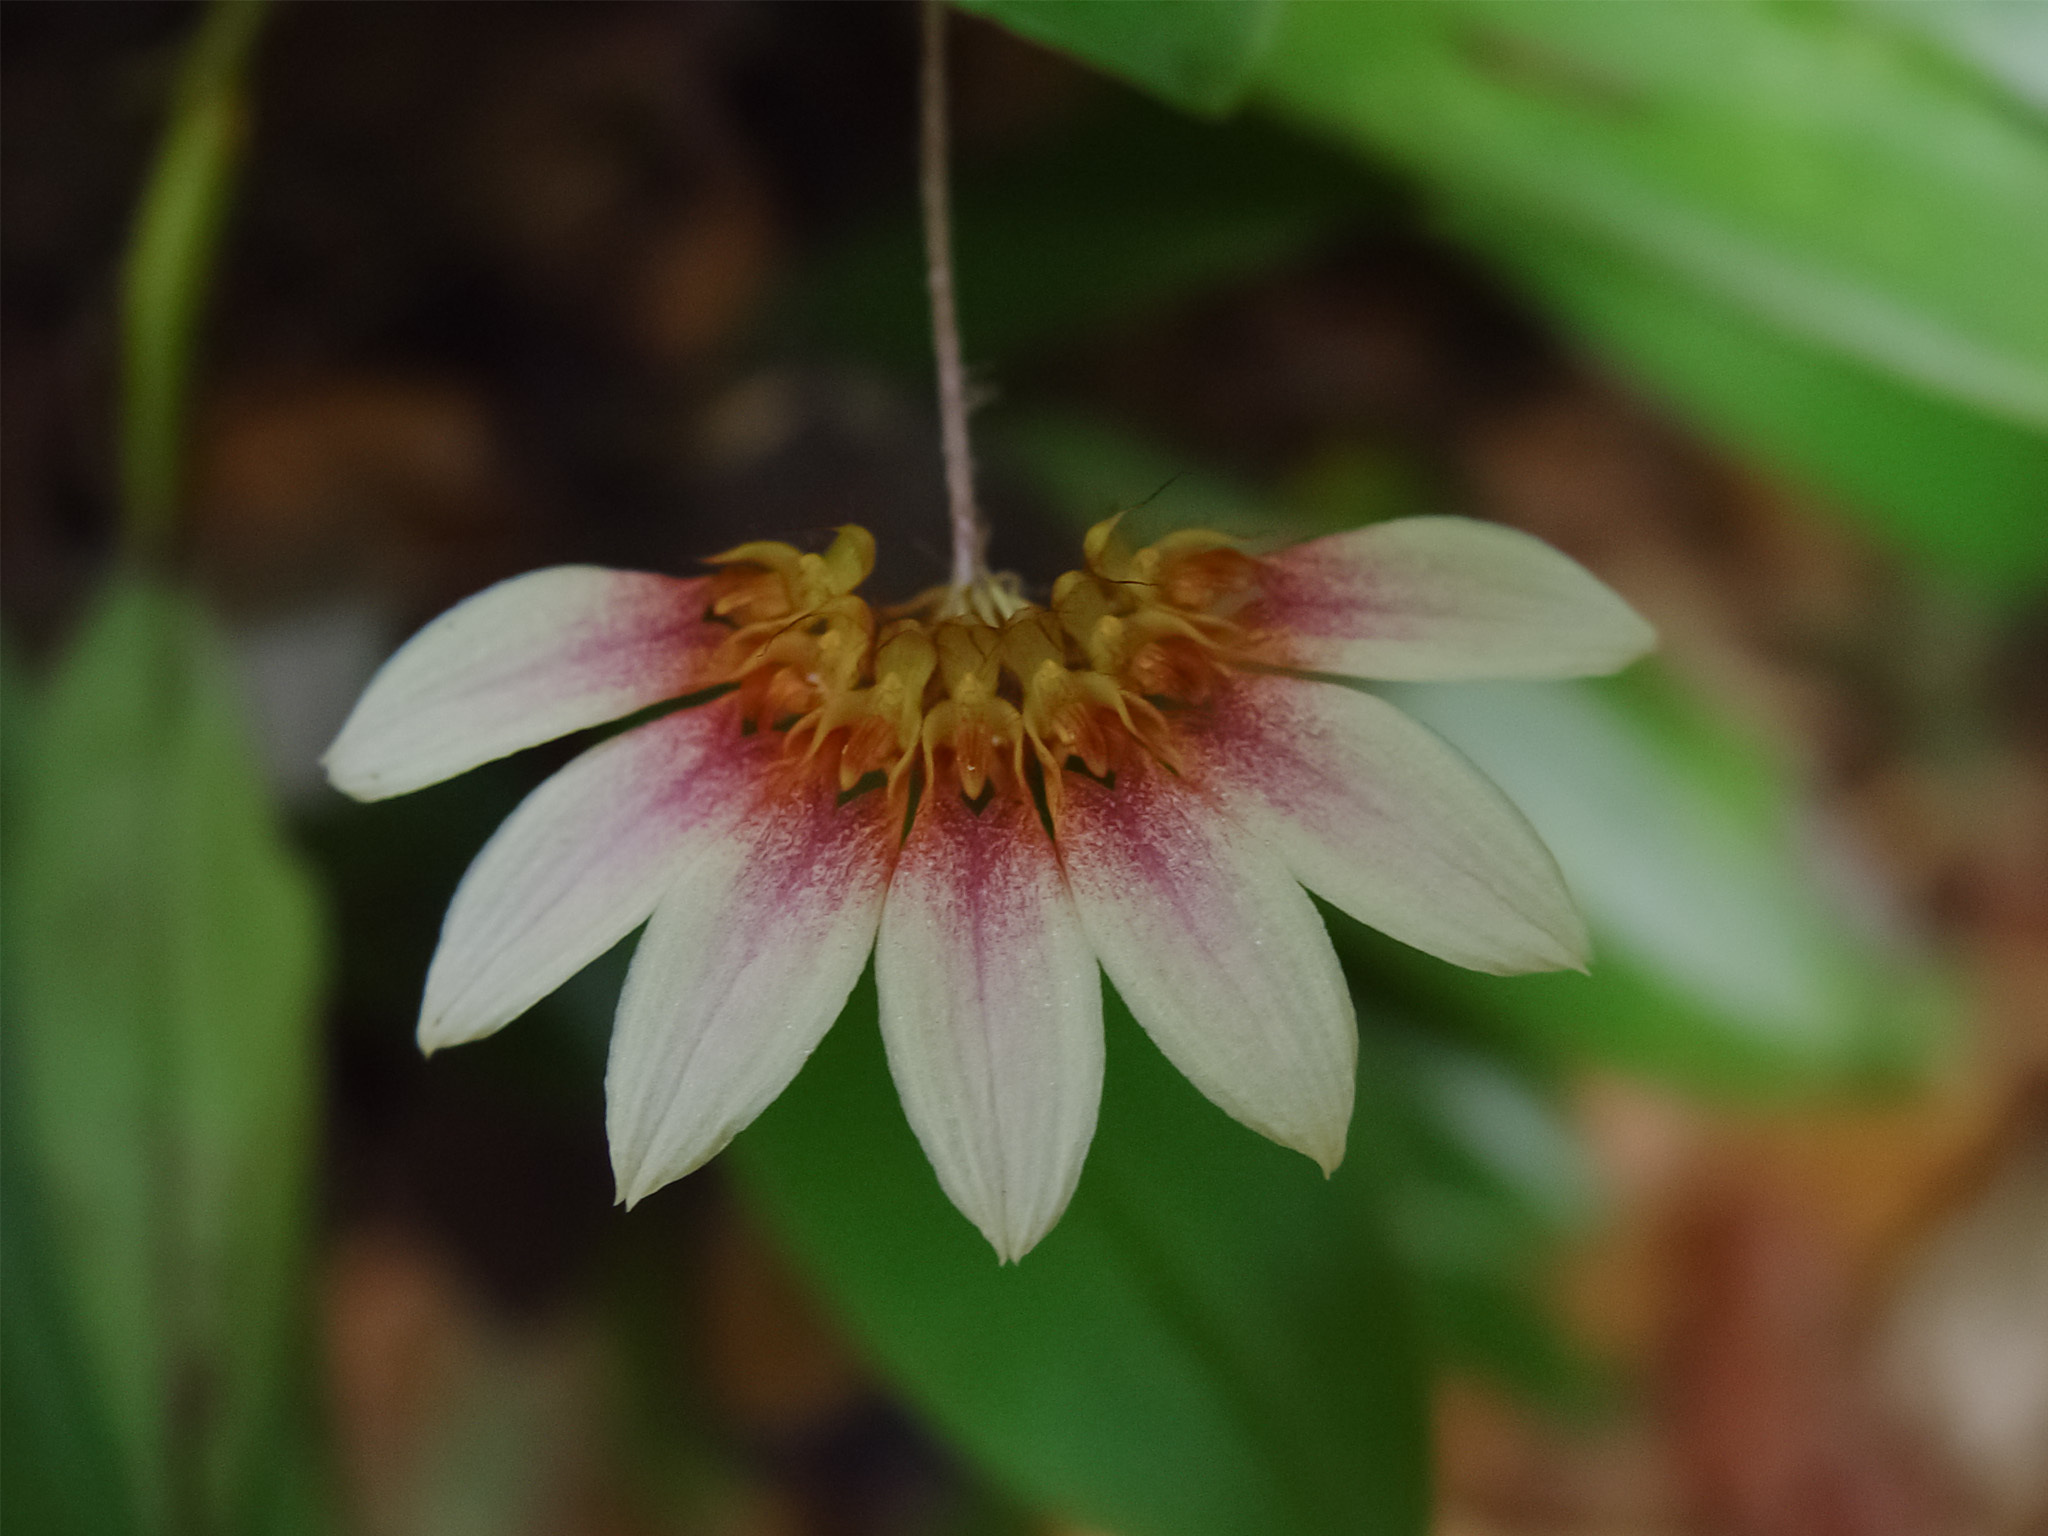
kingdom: Plantae
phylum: Tracheophyta
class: Liliopsida
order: Asparagales
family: Orchidaceae
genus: Bulbophyllum
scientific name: Bulbophyllum lepidum
